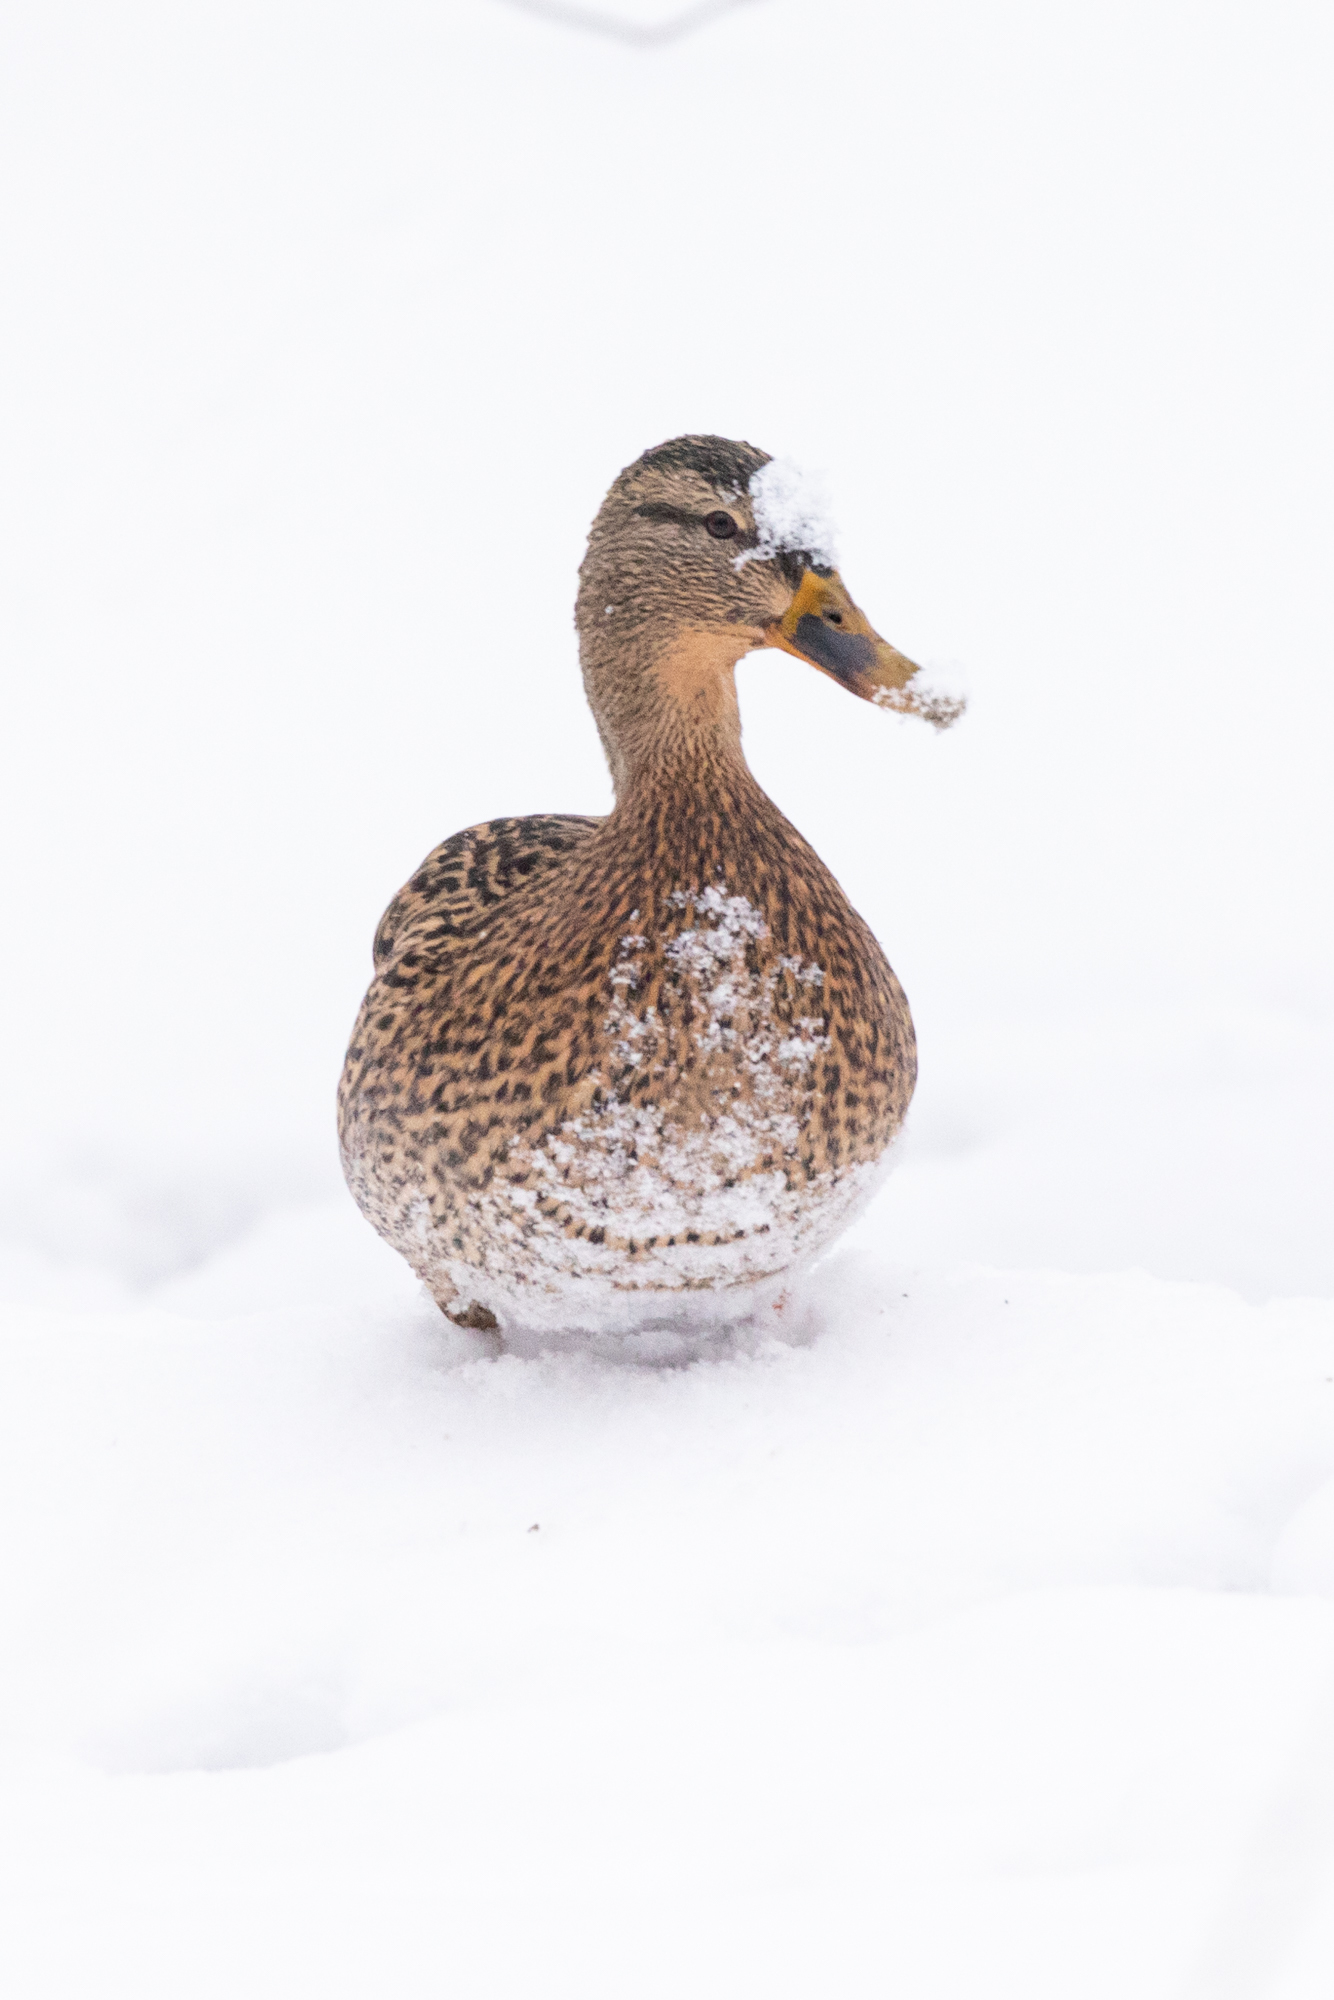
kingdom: Animalia
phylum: Chordata
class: Aves
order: Anseriformes
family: Anatidae
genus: Anas
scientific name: Anas platyrhynchos
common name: Mallard
